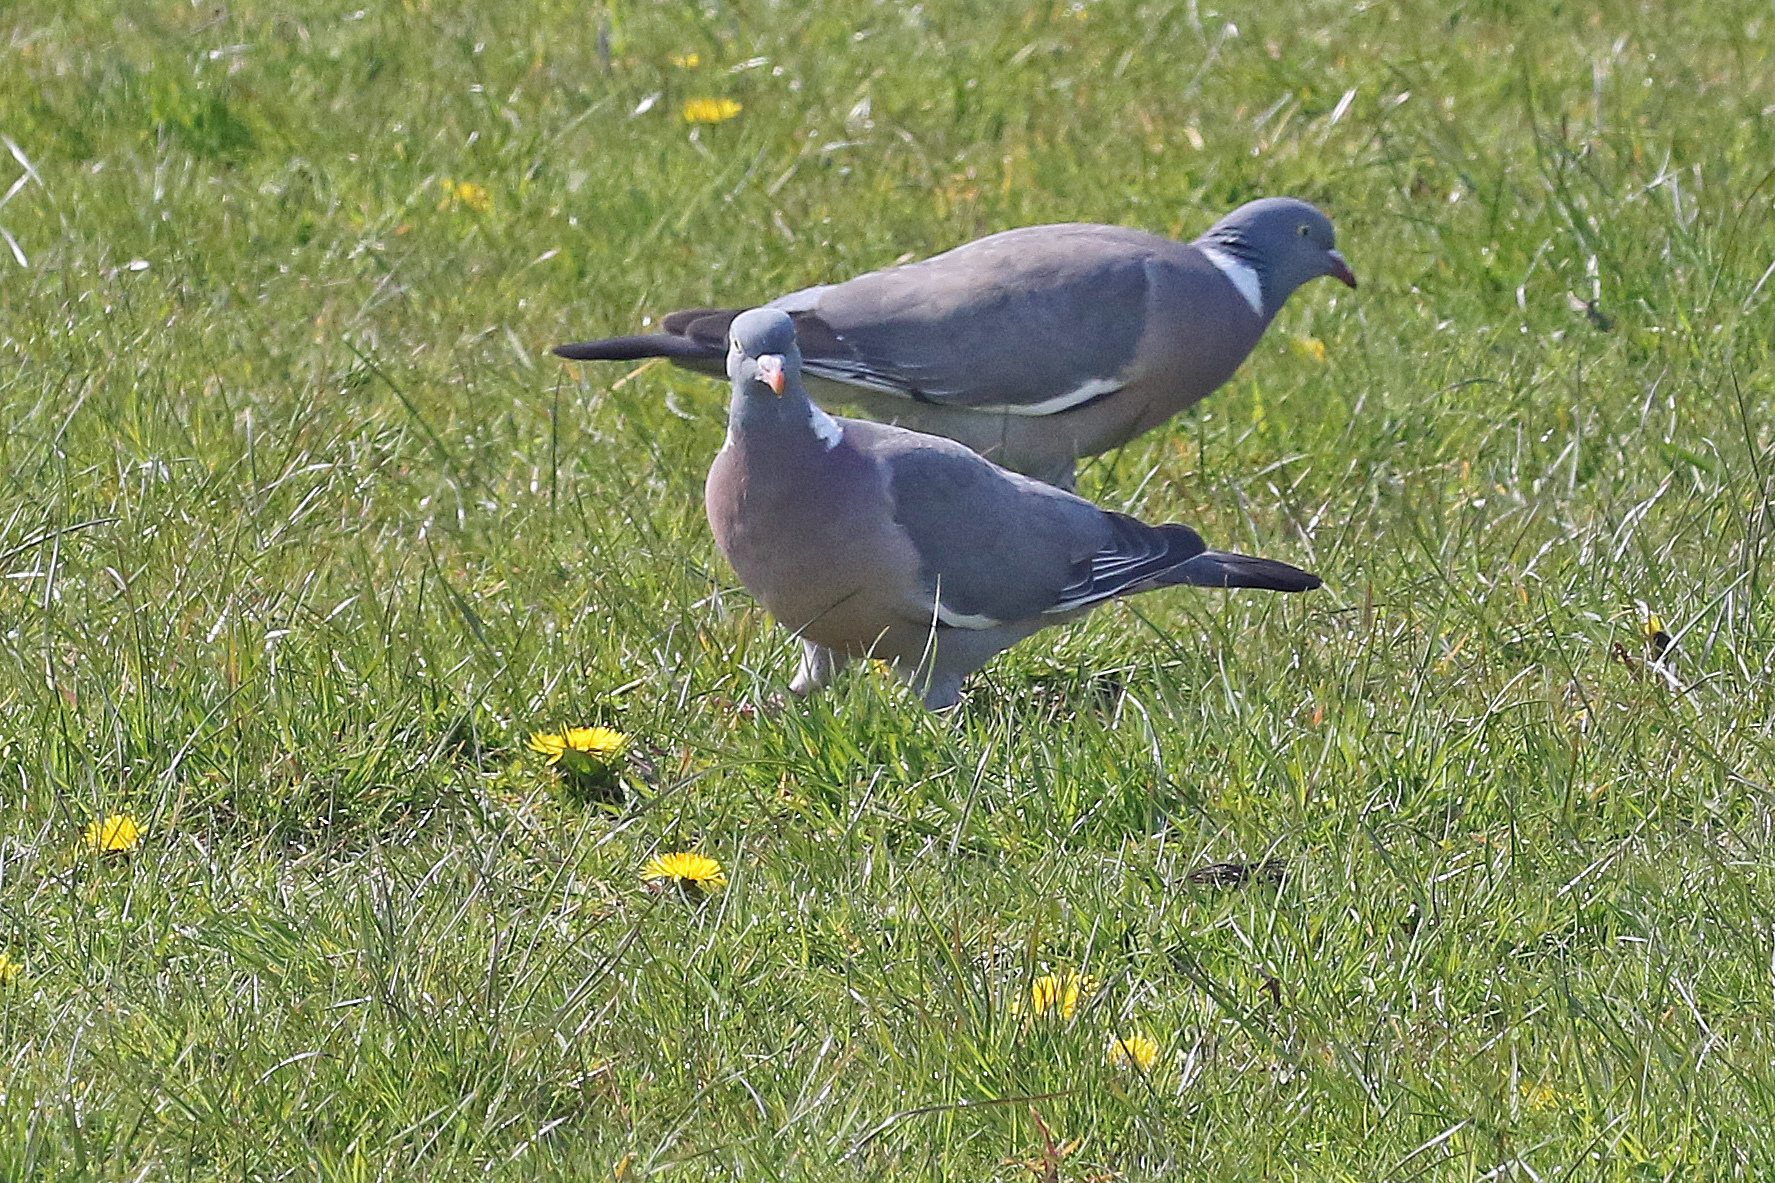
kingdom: Animalia
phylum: Chordata
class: Aves
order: Columbiformes
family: Columbidae
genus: Columba
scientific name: Columba palumbus
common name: Common wood pigeon
